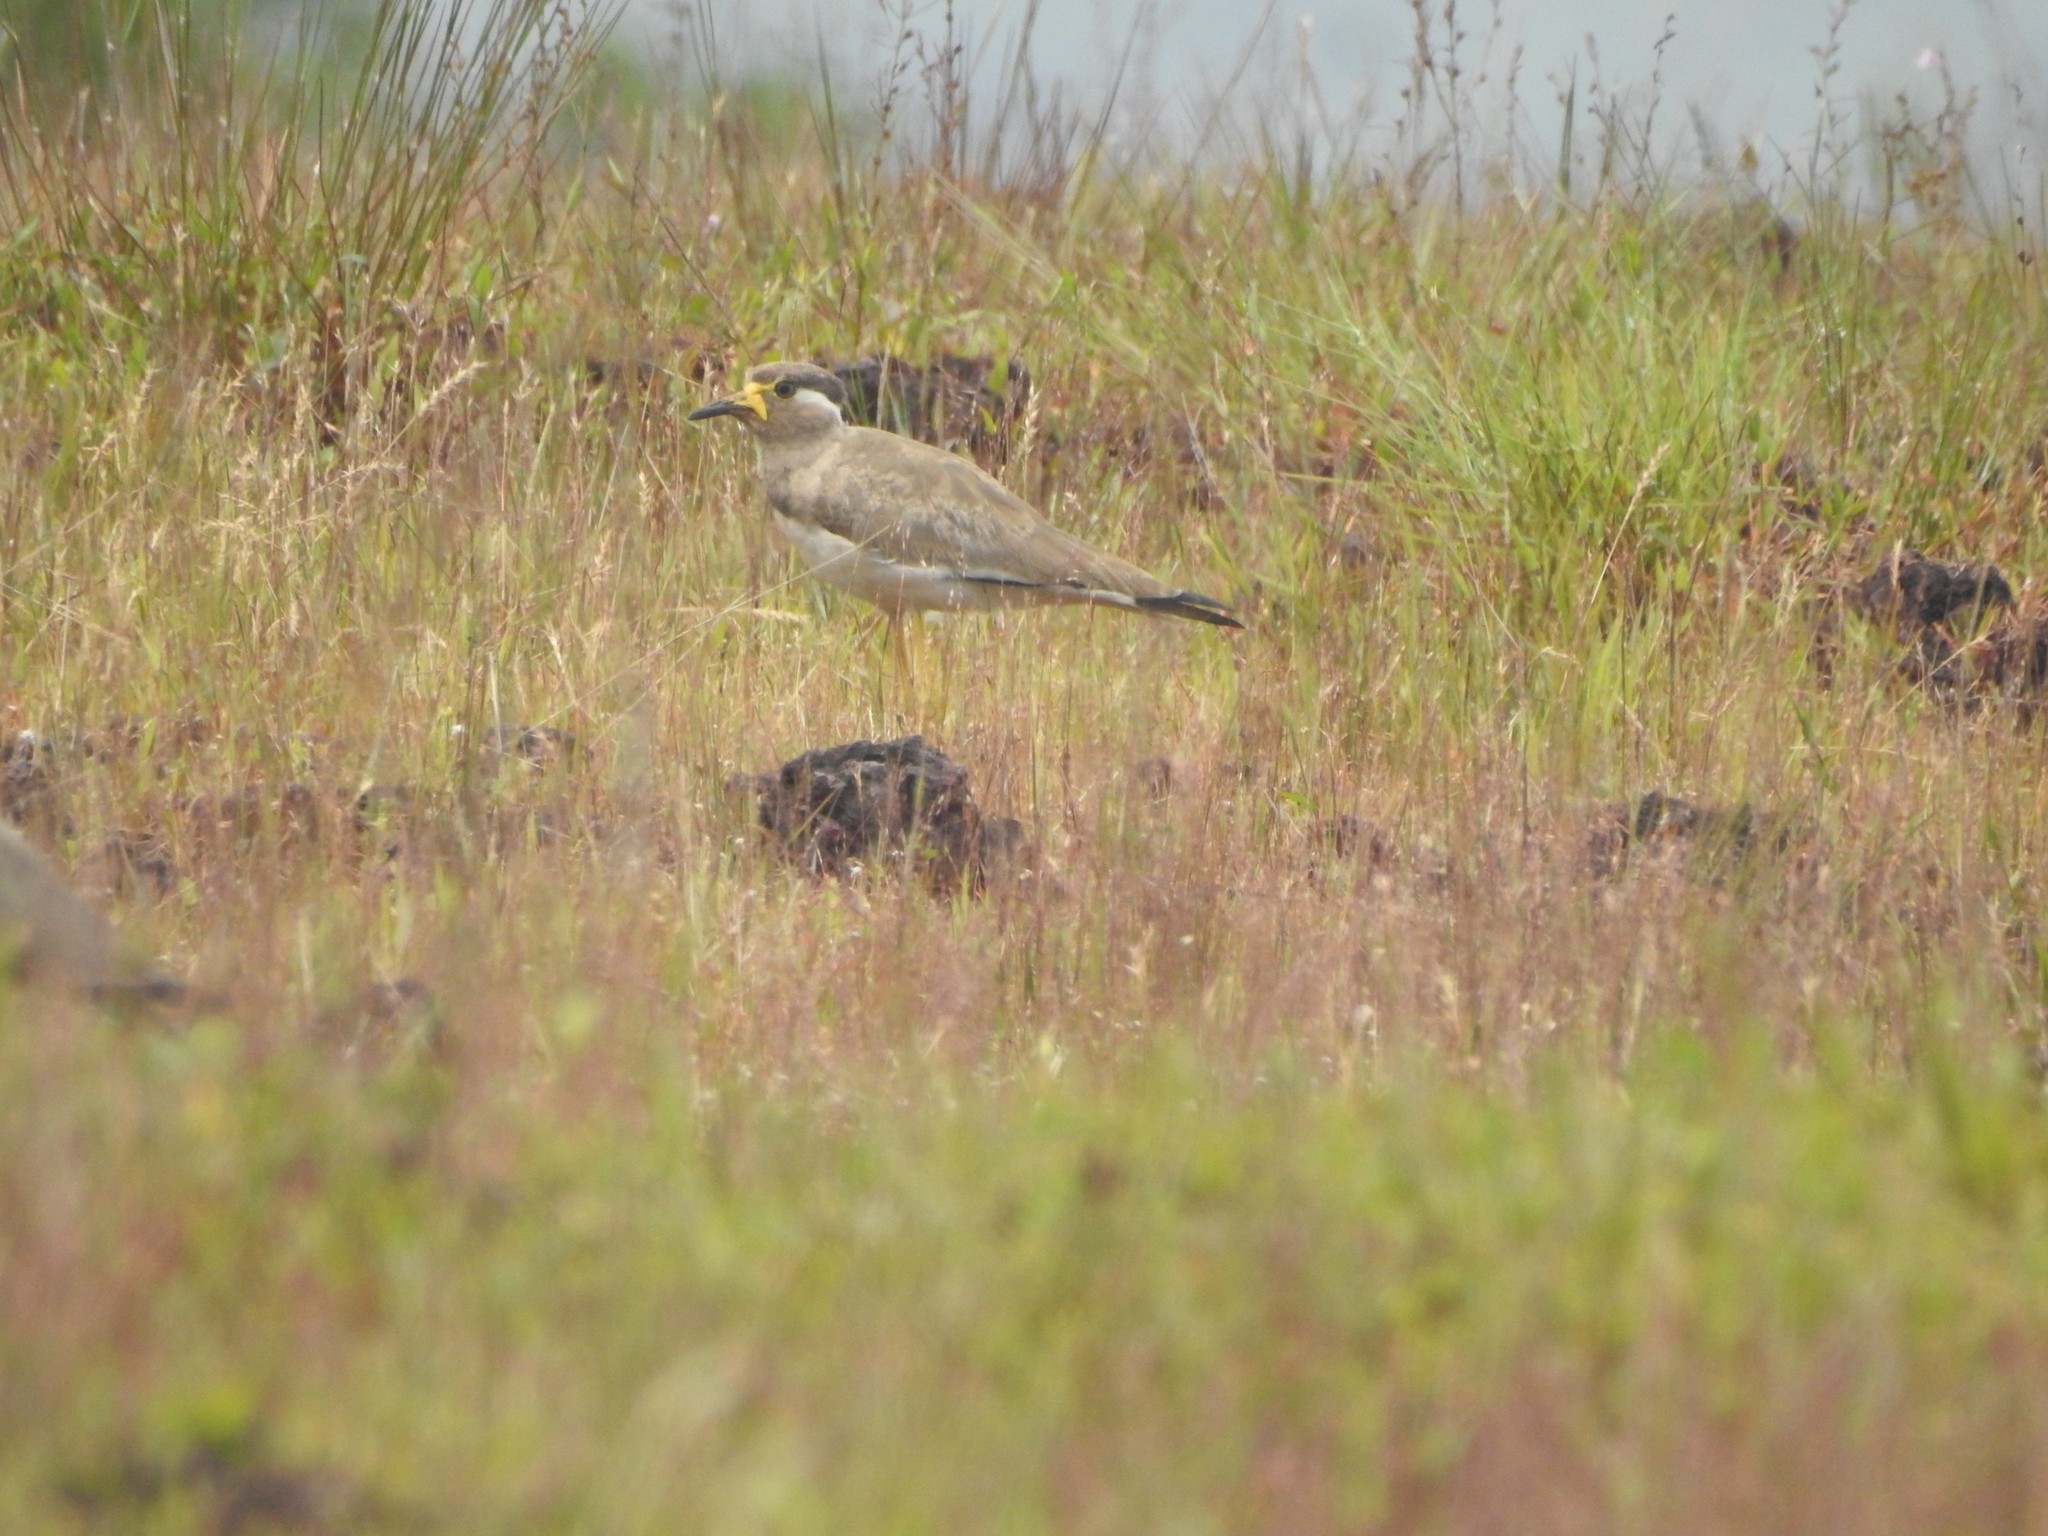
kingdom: Animalia
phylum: Chordata
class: Aves
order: Charadriiformes
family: Charadriidae
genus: Vanellus
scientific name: Vanellus malabaricus
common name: Yellow-wattled lapwing
